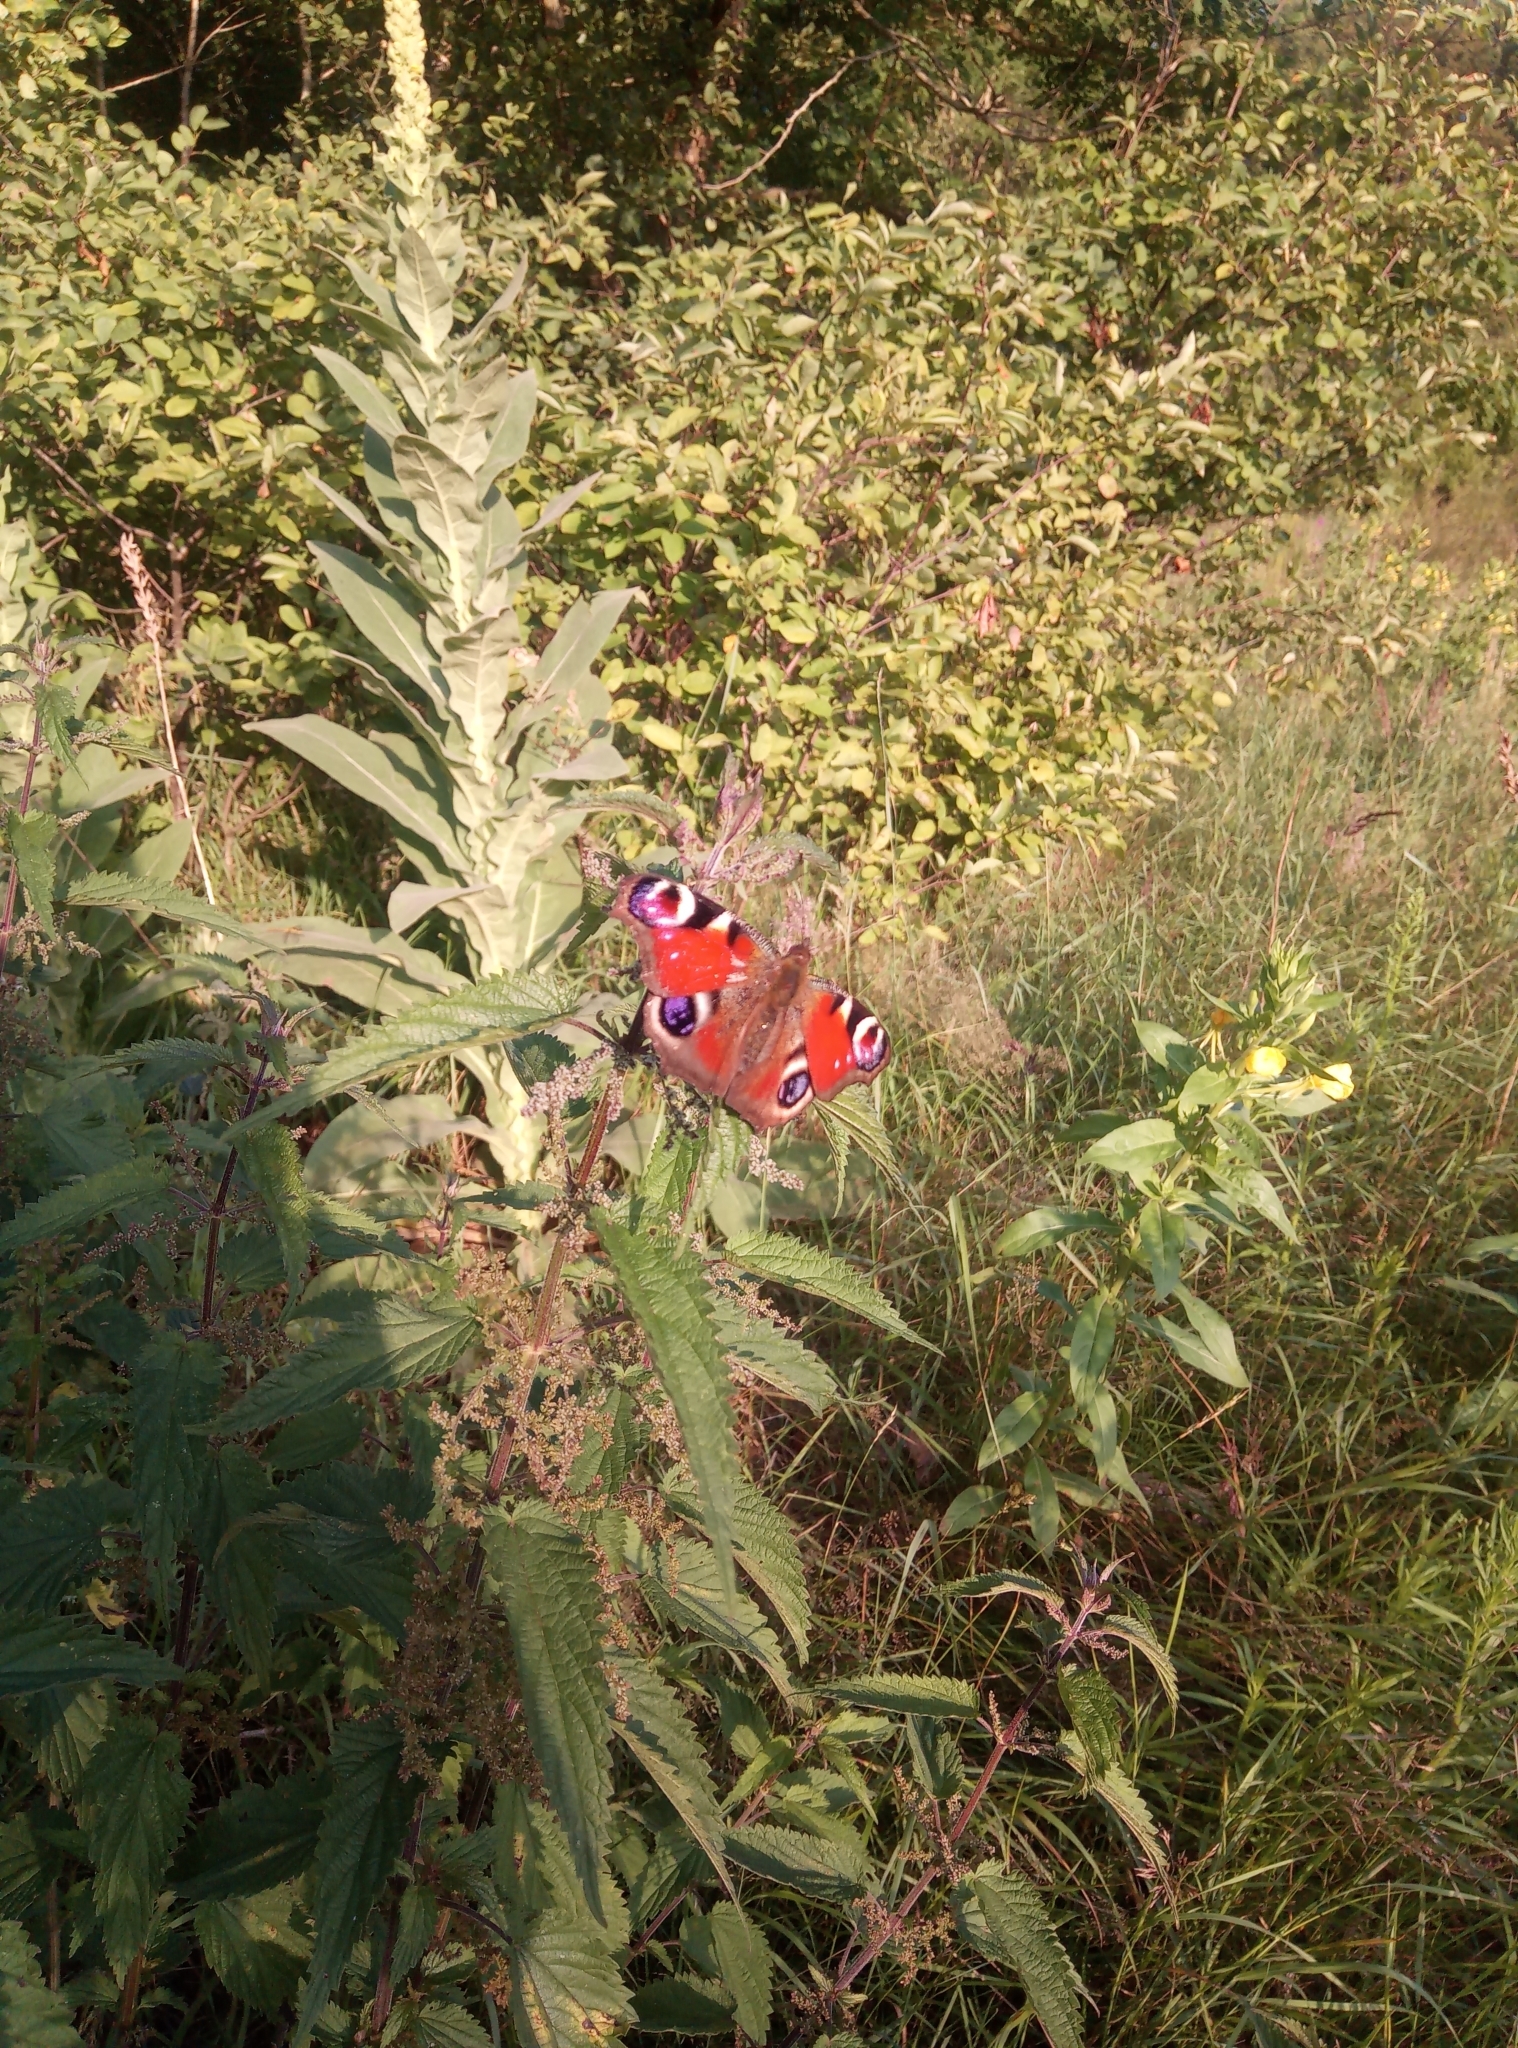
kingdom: Animalia
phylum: Arthropoda
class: Insecta
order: Lepidoptera
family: Nymphalidae
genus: Aglais
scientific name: Aglais io
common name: Peacock
